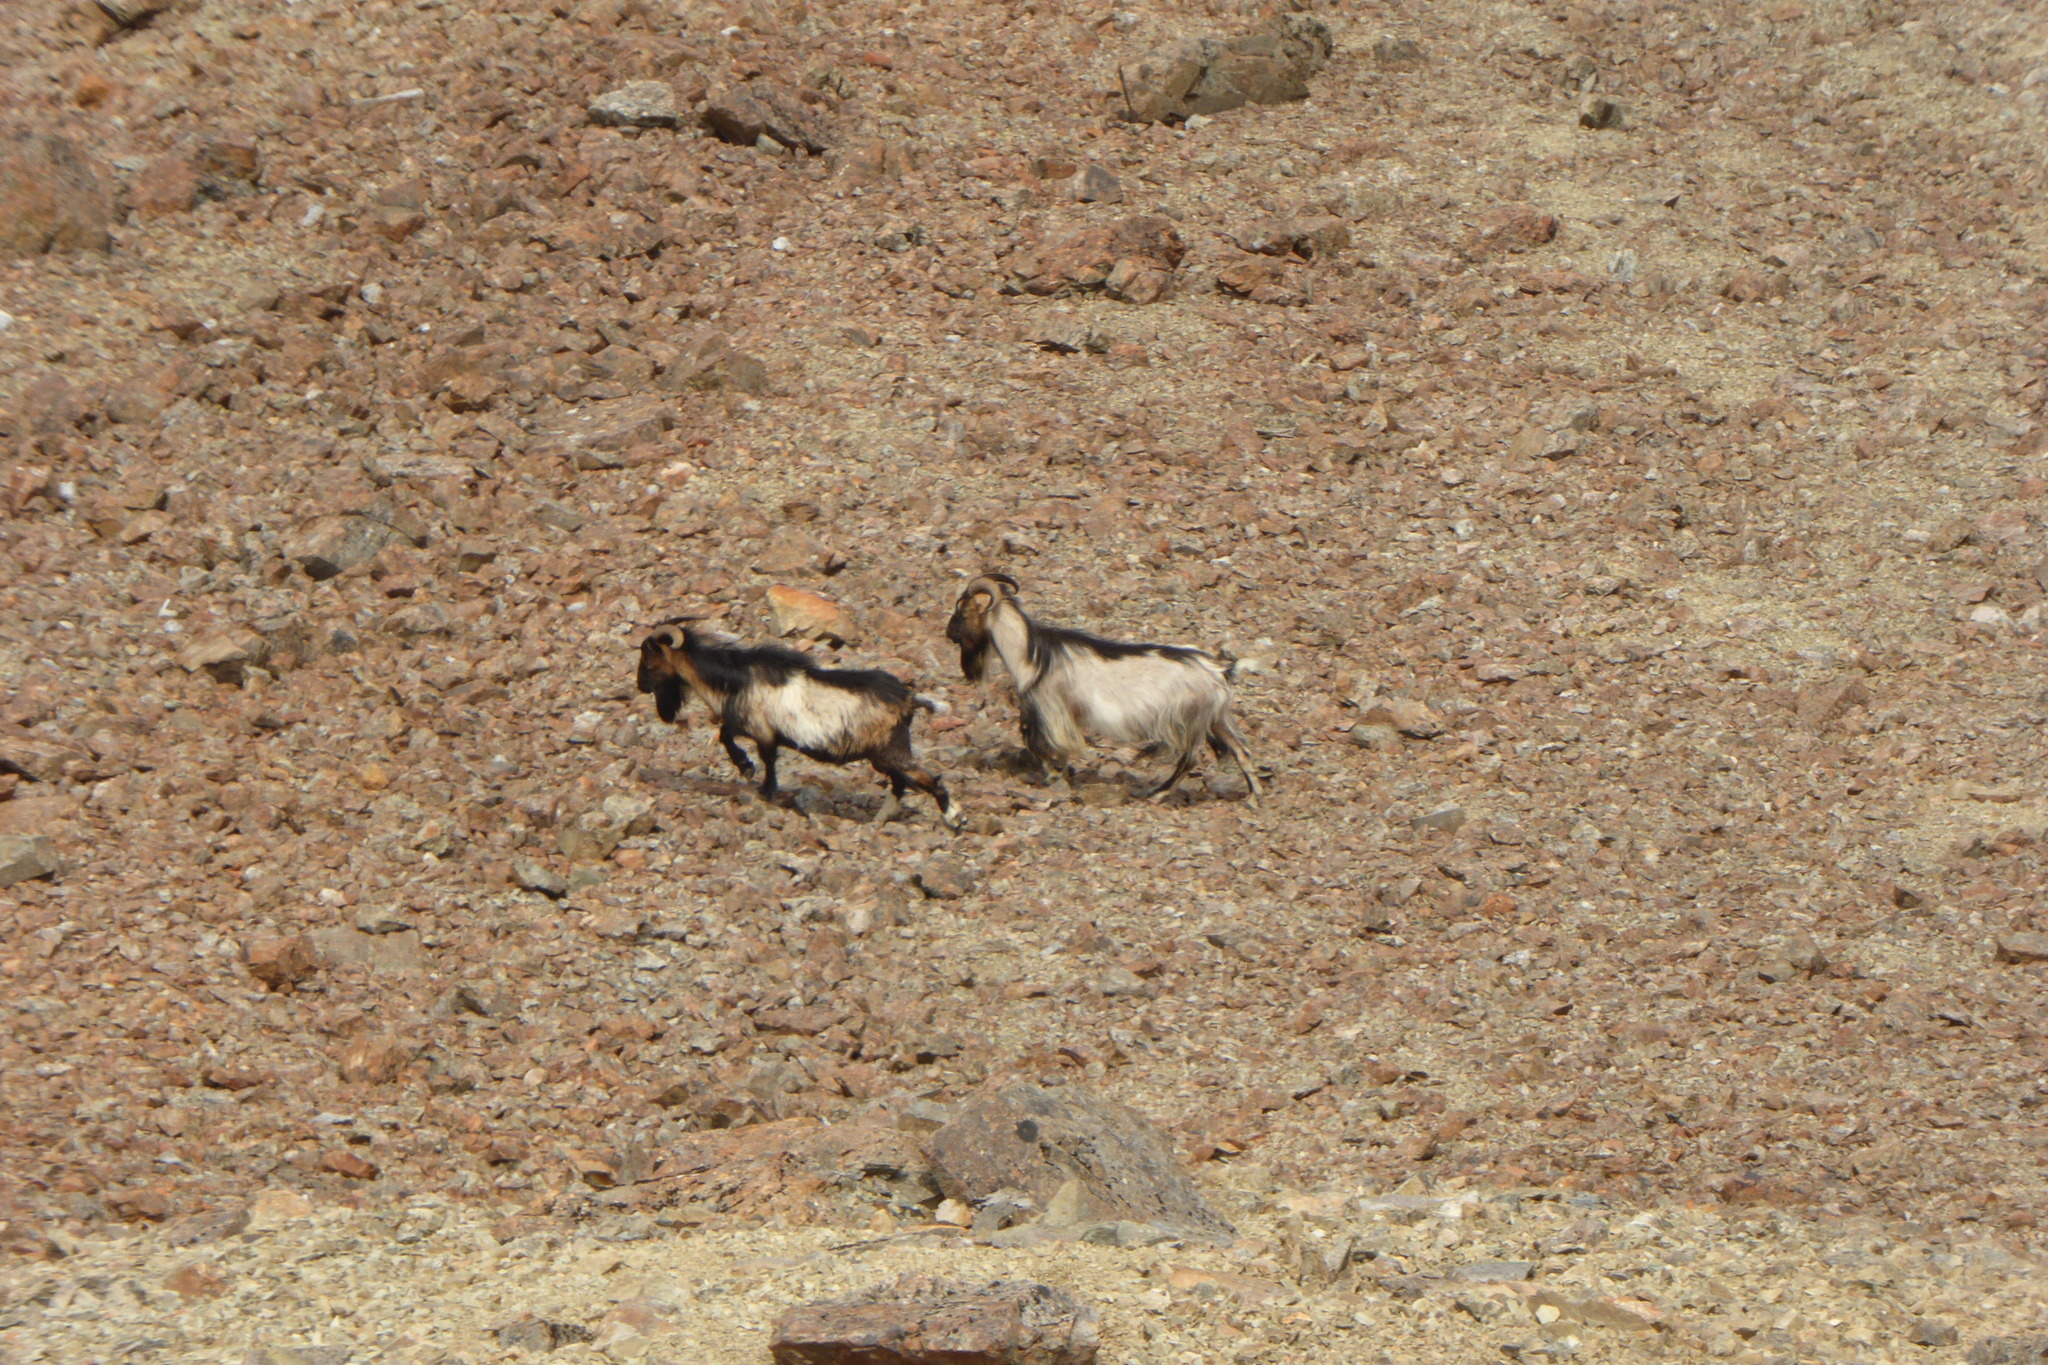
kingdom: Animalia
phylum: Chordata
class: Mammalia
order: Artiodactyla
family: Bovidae
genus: Capra
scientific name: Capra hircus
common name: Domestic goat
